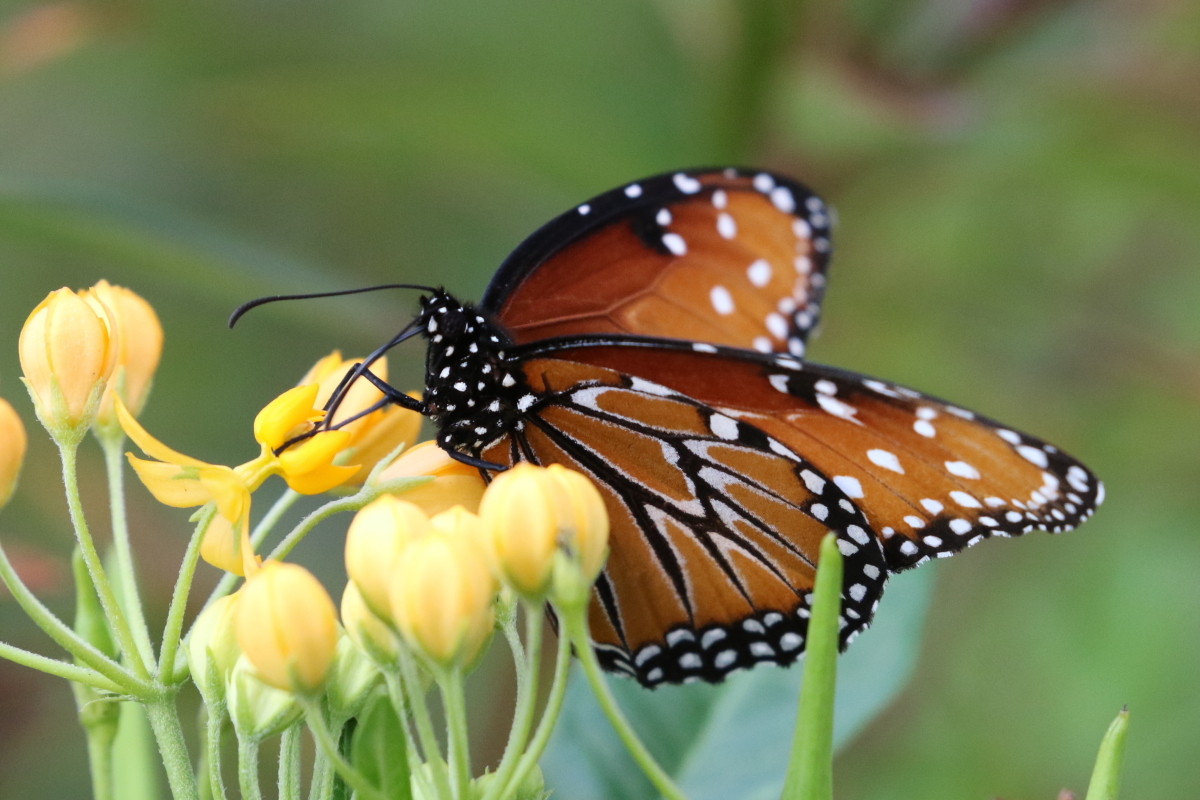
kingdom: Animalia
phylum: Arthropoda
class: Insecta
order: Lepidoptera
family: Nymphalidae
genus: Danaus
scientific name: Danaus gilippus
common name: Queen
